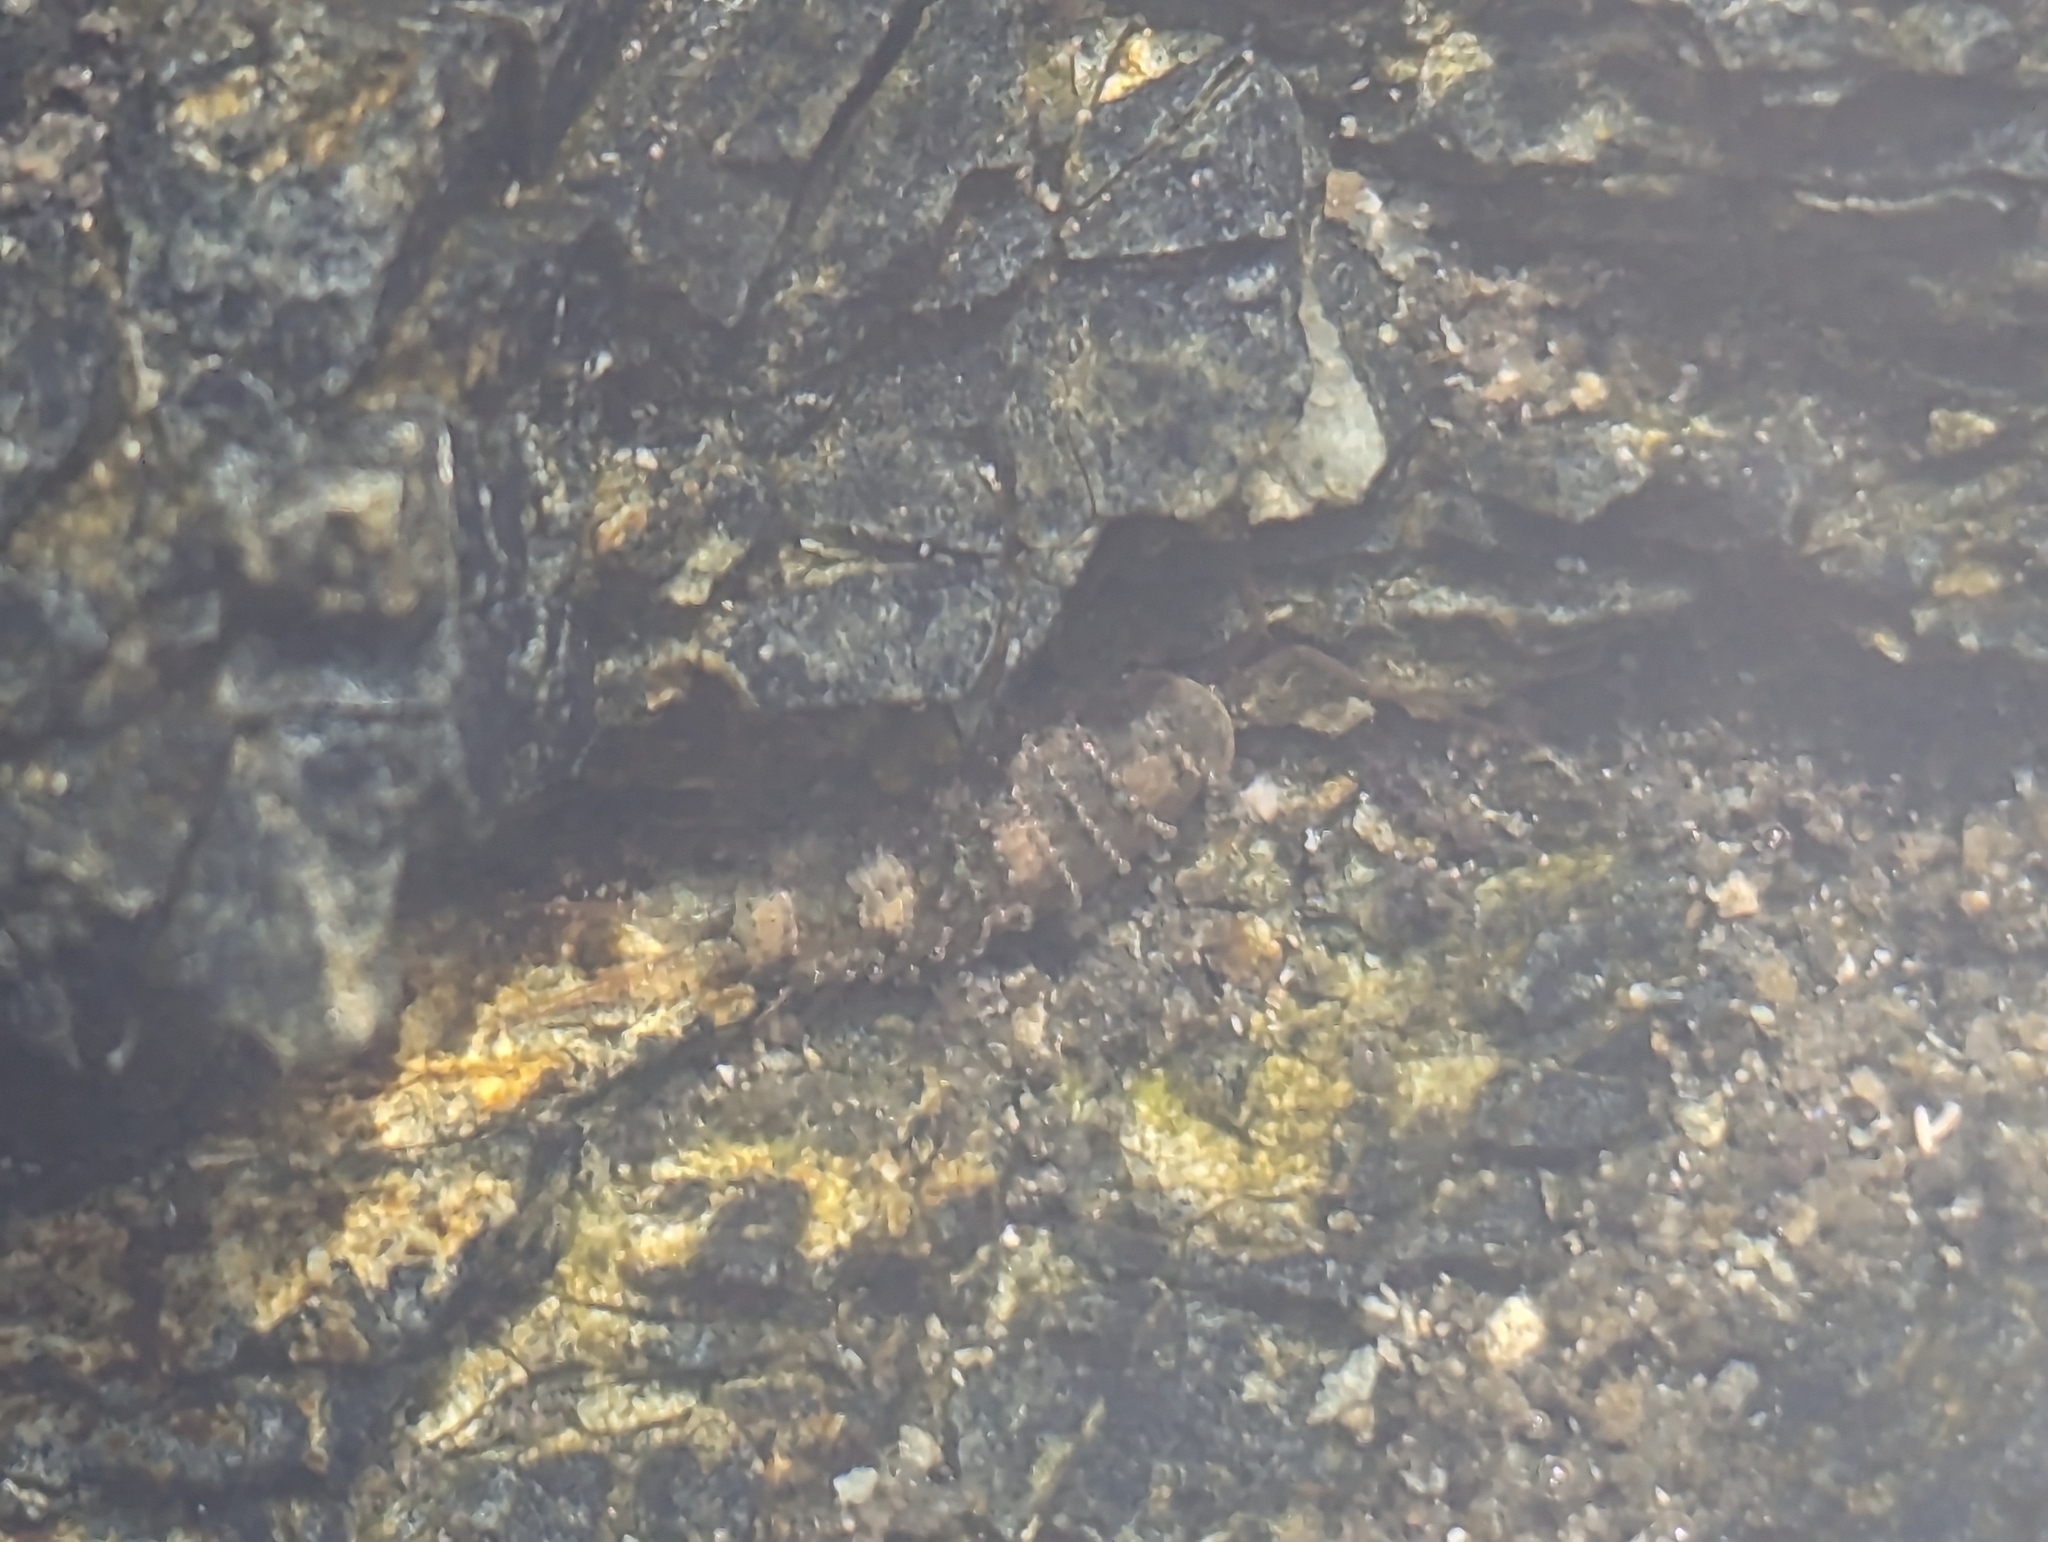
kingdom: Animalia
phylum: Arthropoda
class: Malacostraca
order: Isopoda
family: Ligiidae
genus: Ligia
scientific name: Ligia occidentalis
